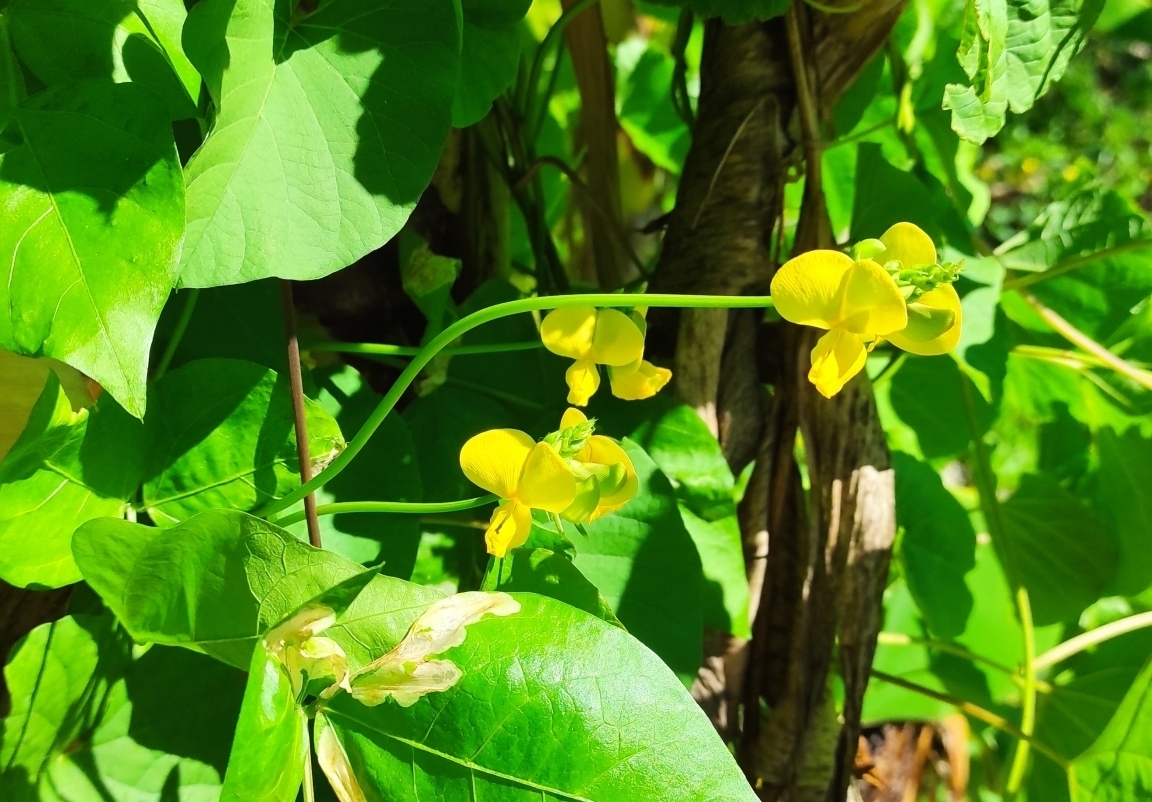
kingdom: Plantae
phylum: Tracheophyta
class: Magnoliopsida
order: Fabales
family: Fabaceae
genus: Vigna
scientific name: Vigna luteola
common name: Hairypod cowpea
